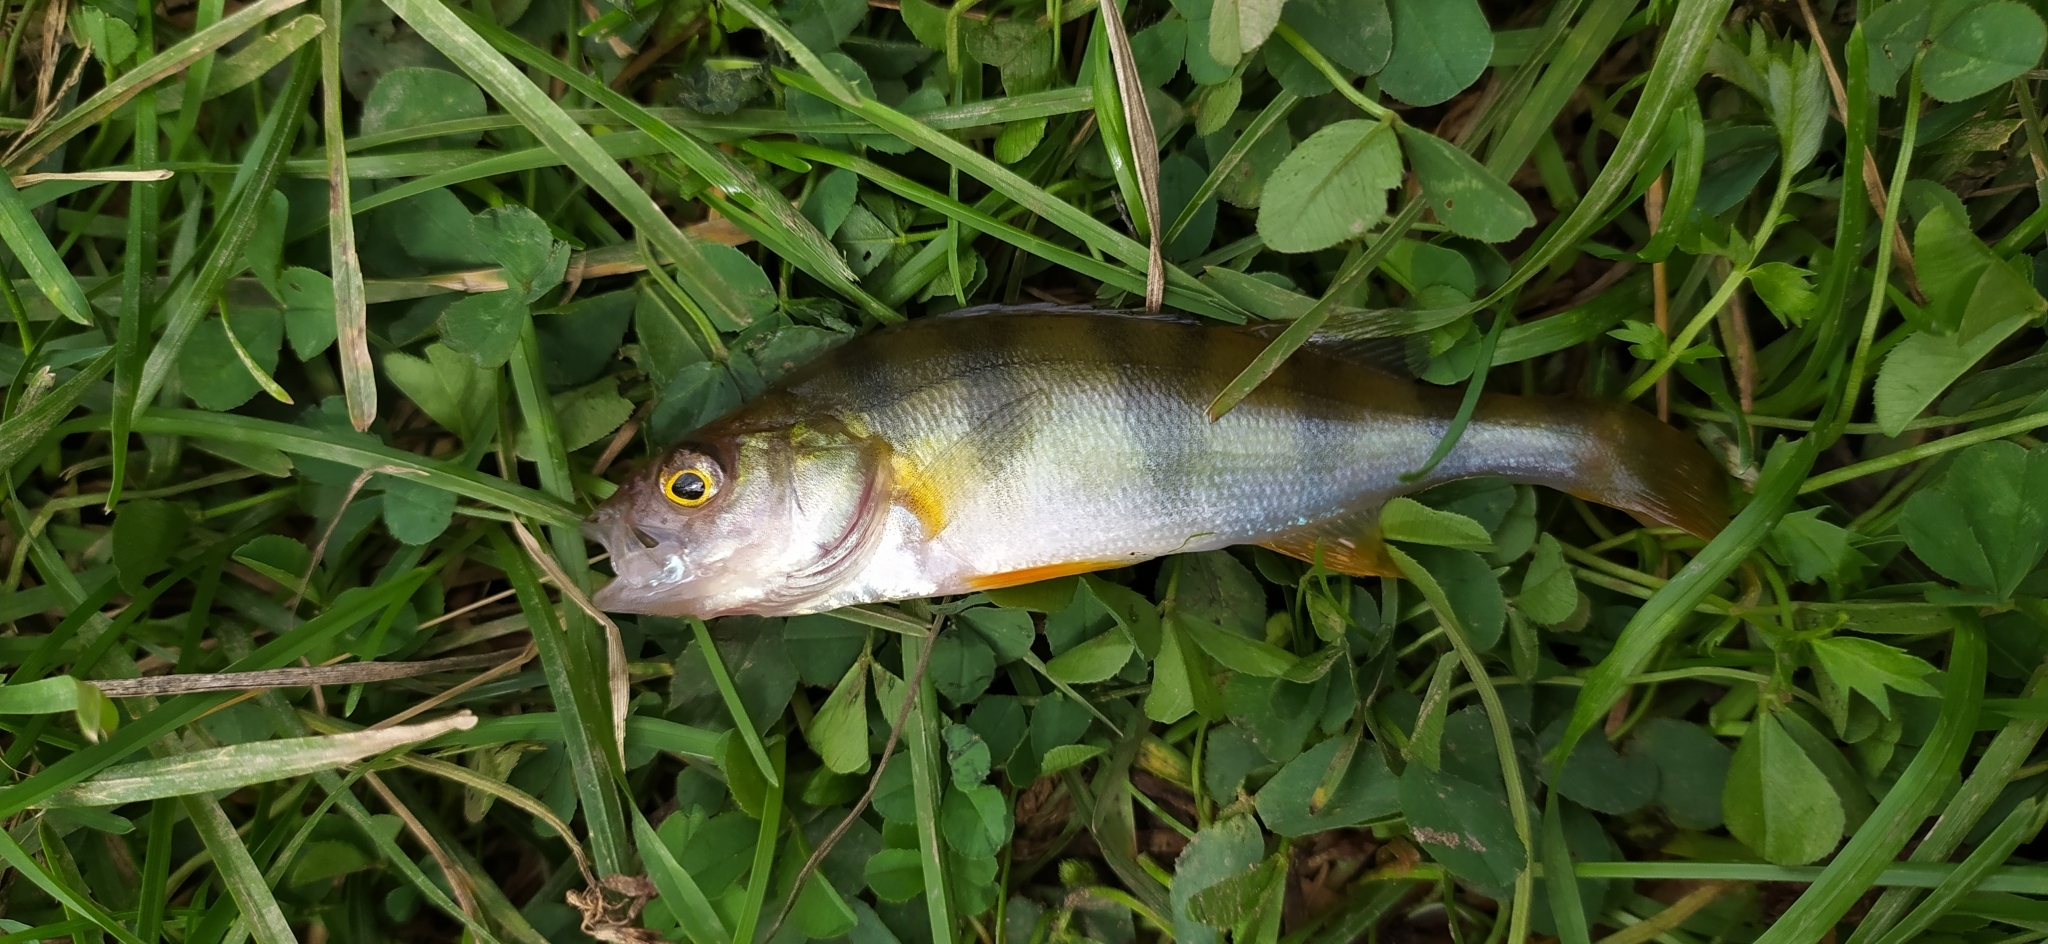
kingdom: Animalia
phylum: Chordata
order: Perciformes
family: Percidae
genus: Perca
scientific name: Perca fluviatilis
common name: Perch
